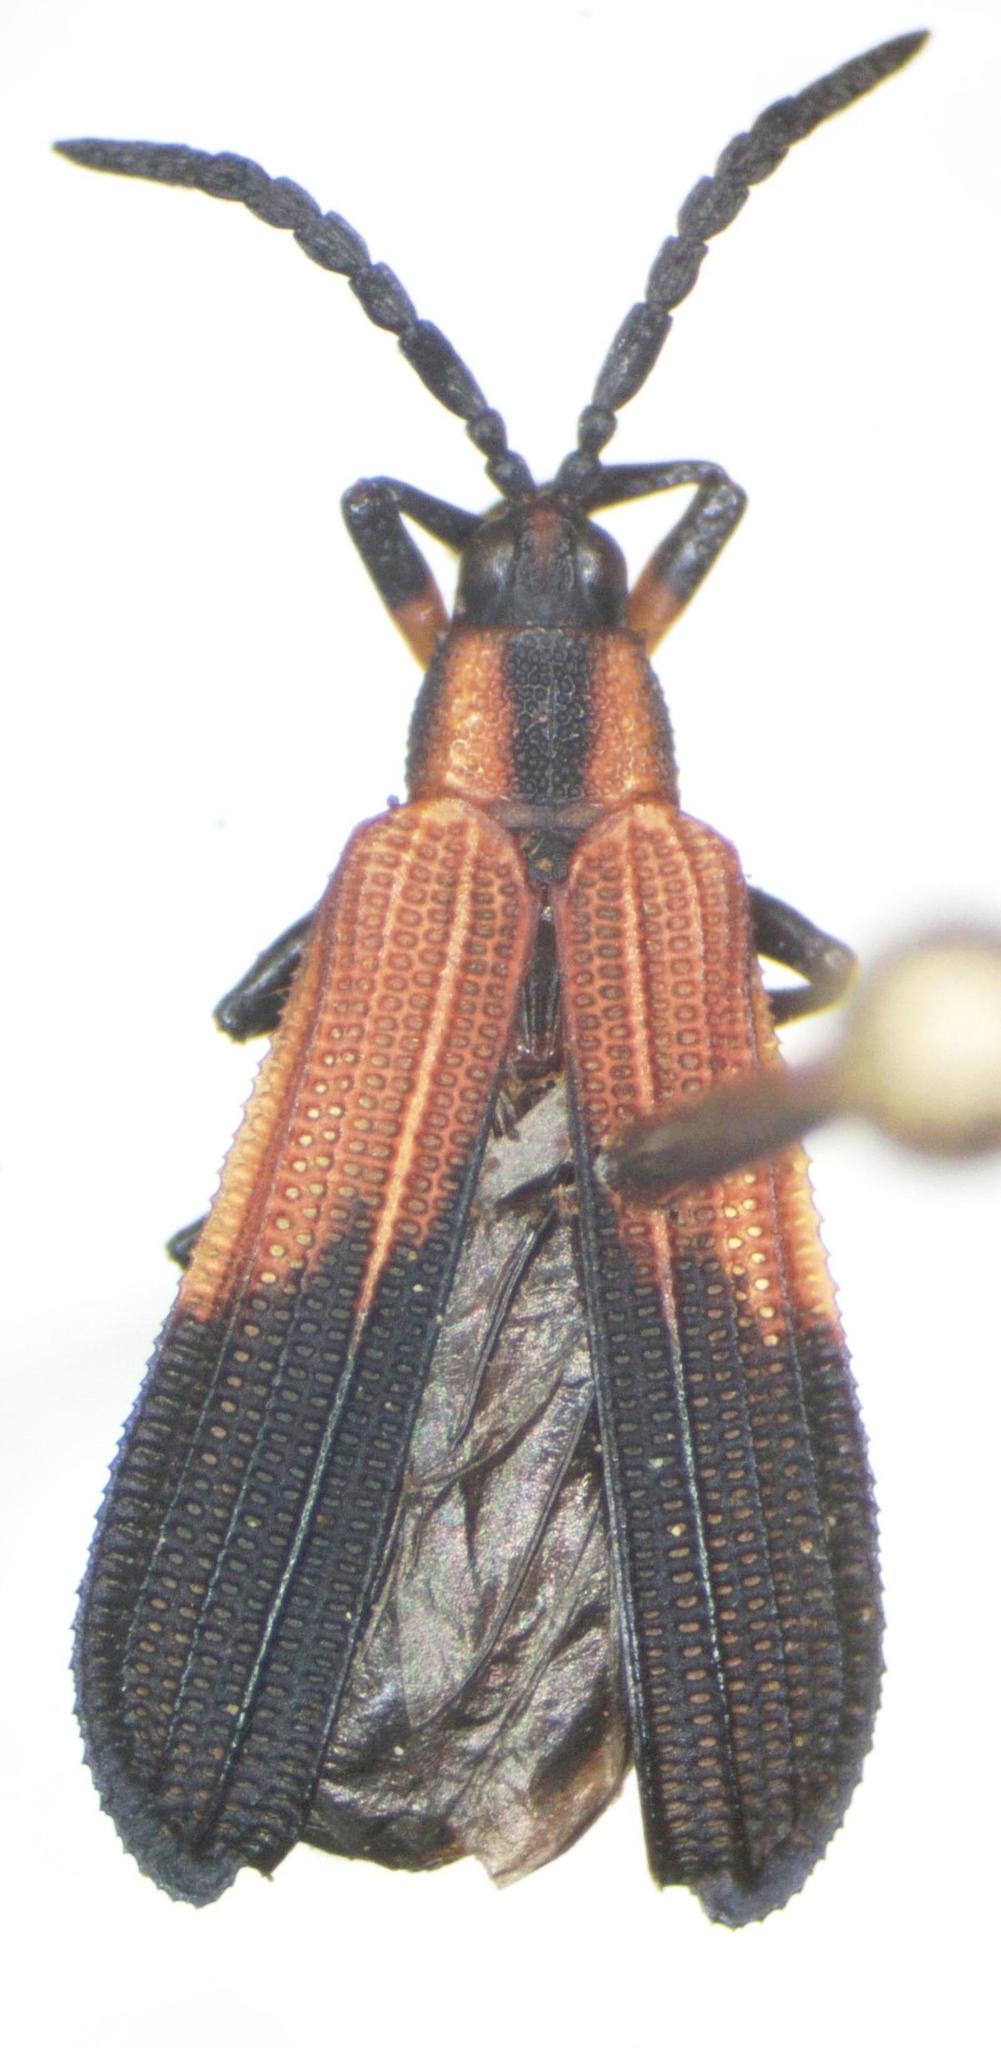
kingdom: Animalia
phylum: Arthropoda
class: Insecta
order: Coleoptera
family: Chrysomelidae
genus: Platocthispa
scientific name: Platocthispa championi
